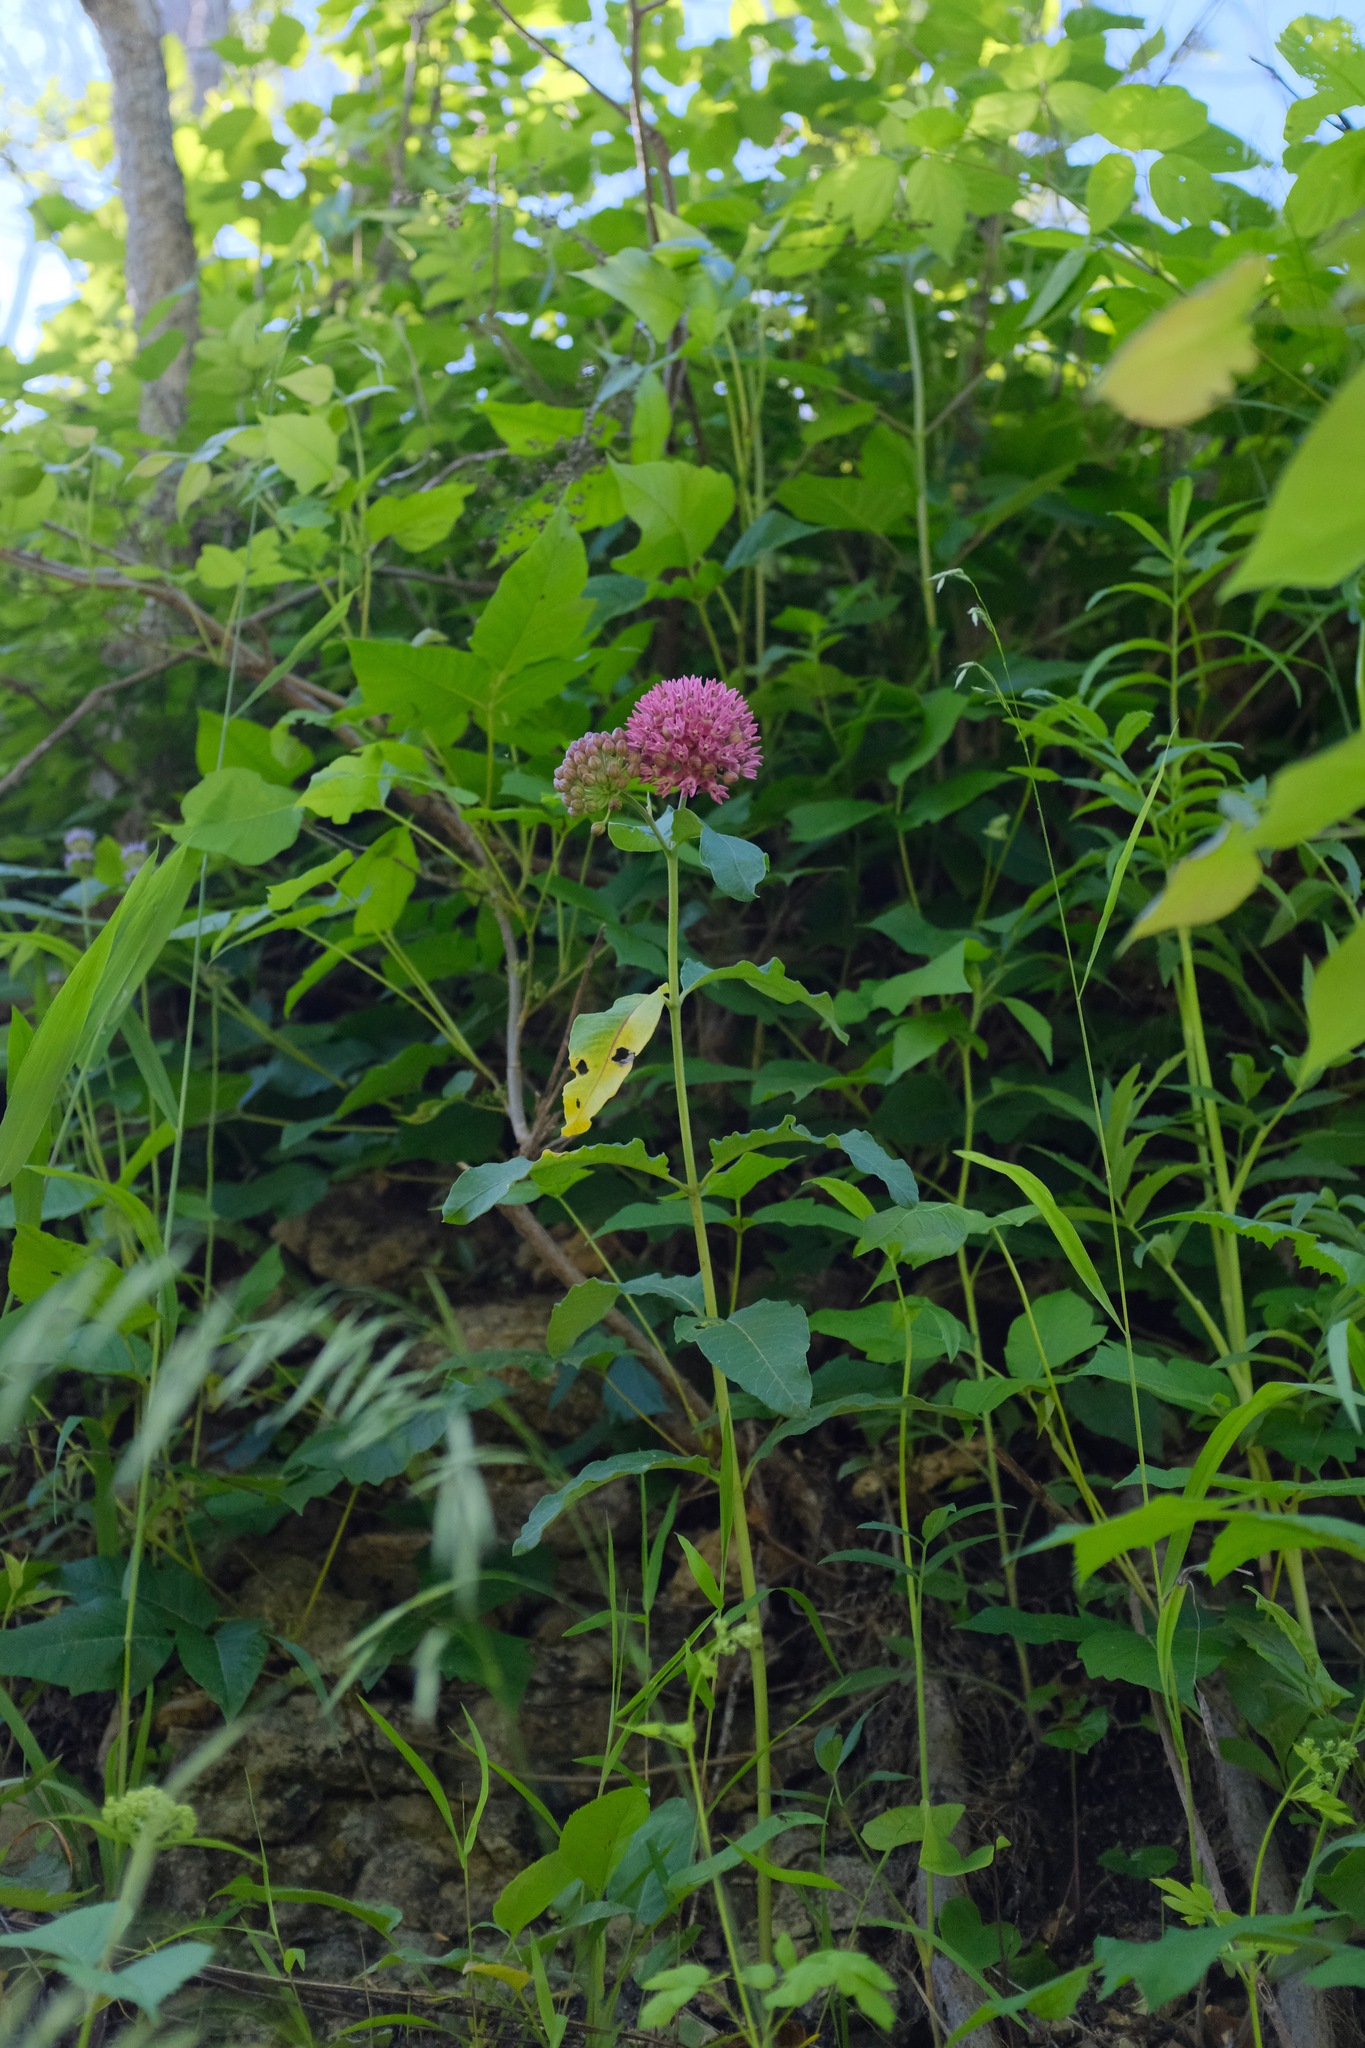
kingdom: Plantae
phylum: Tracheophyta
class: Magnoliopsida
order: Gentianales
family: Apocynaceae
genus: Asclepias
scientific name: Asclepias purpurascens
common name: Purple milkweed
